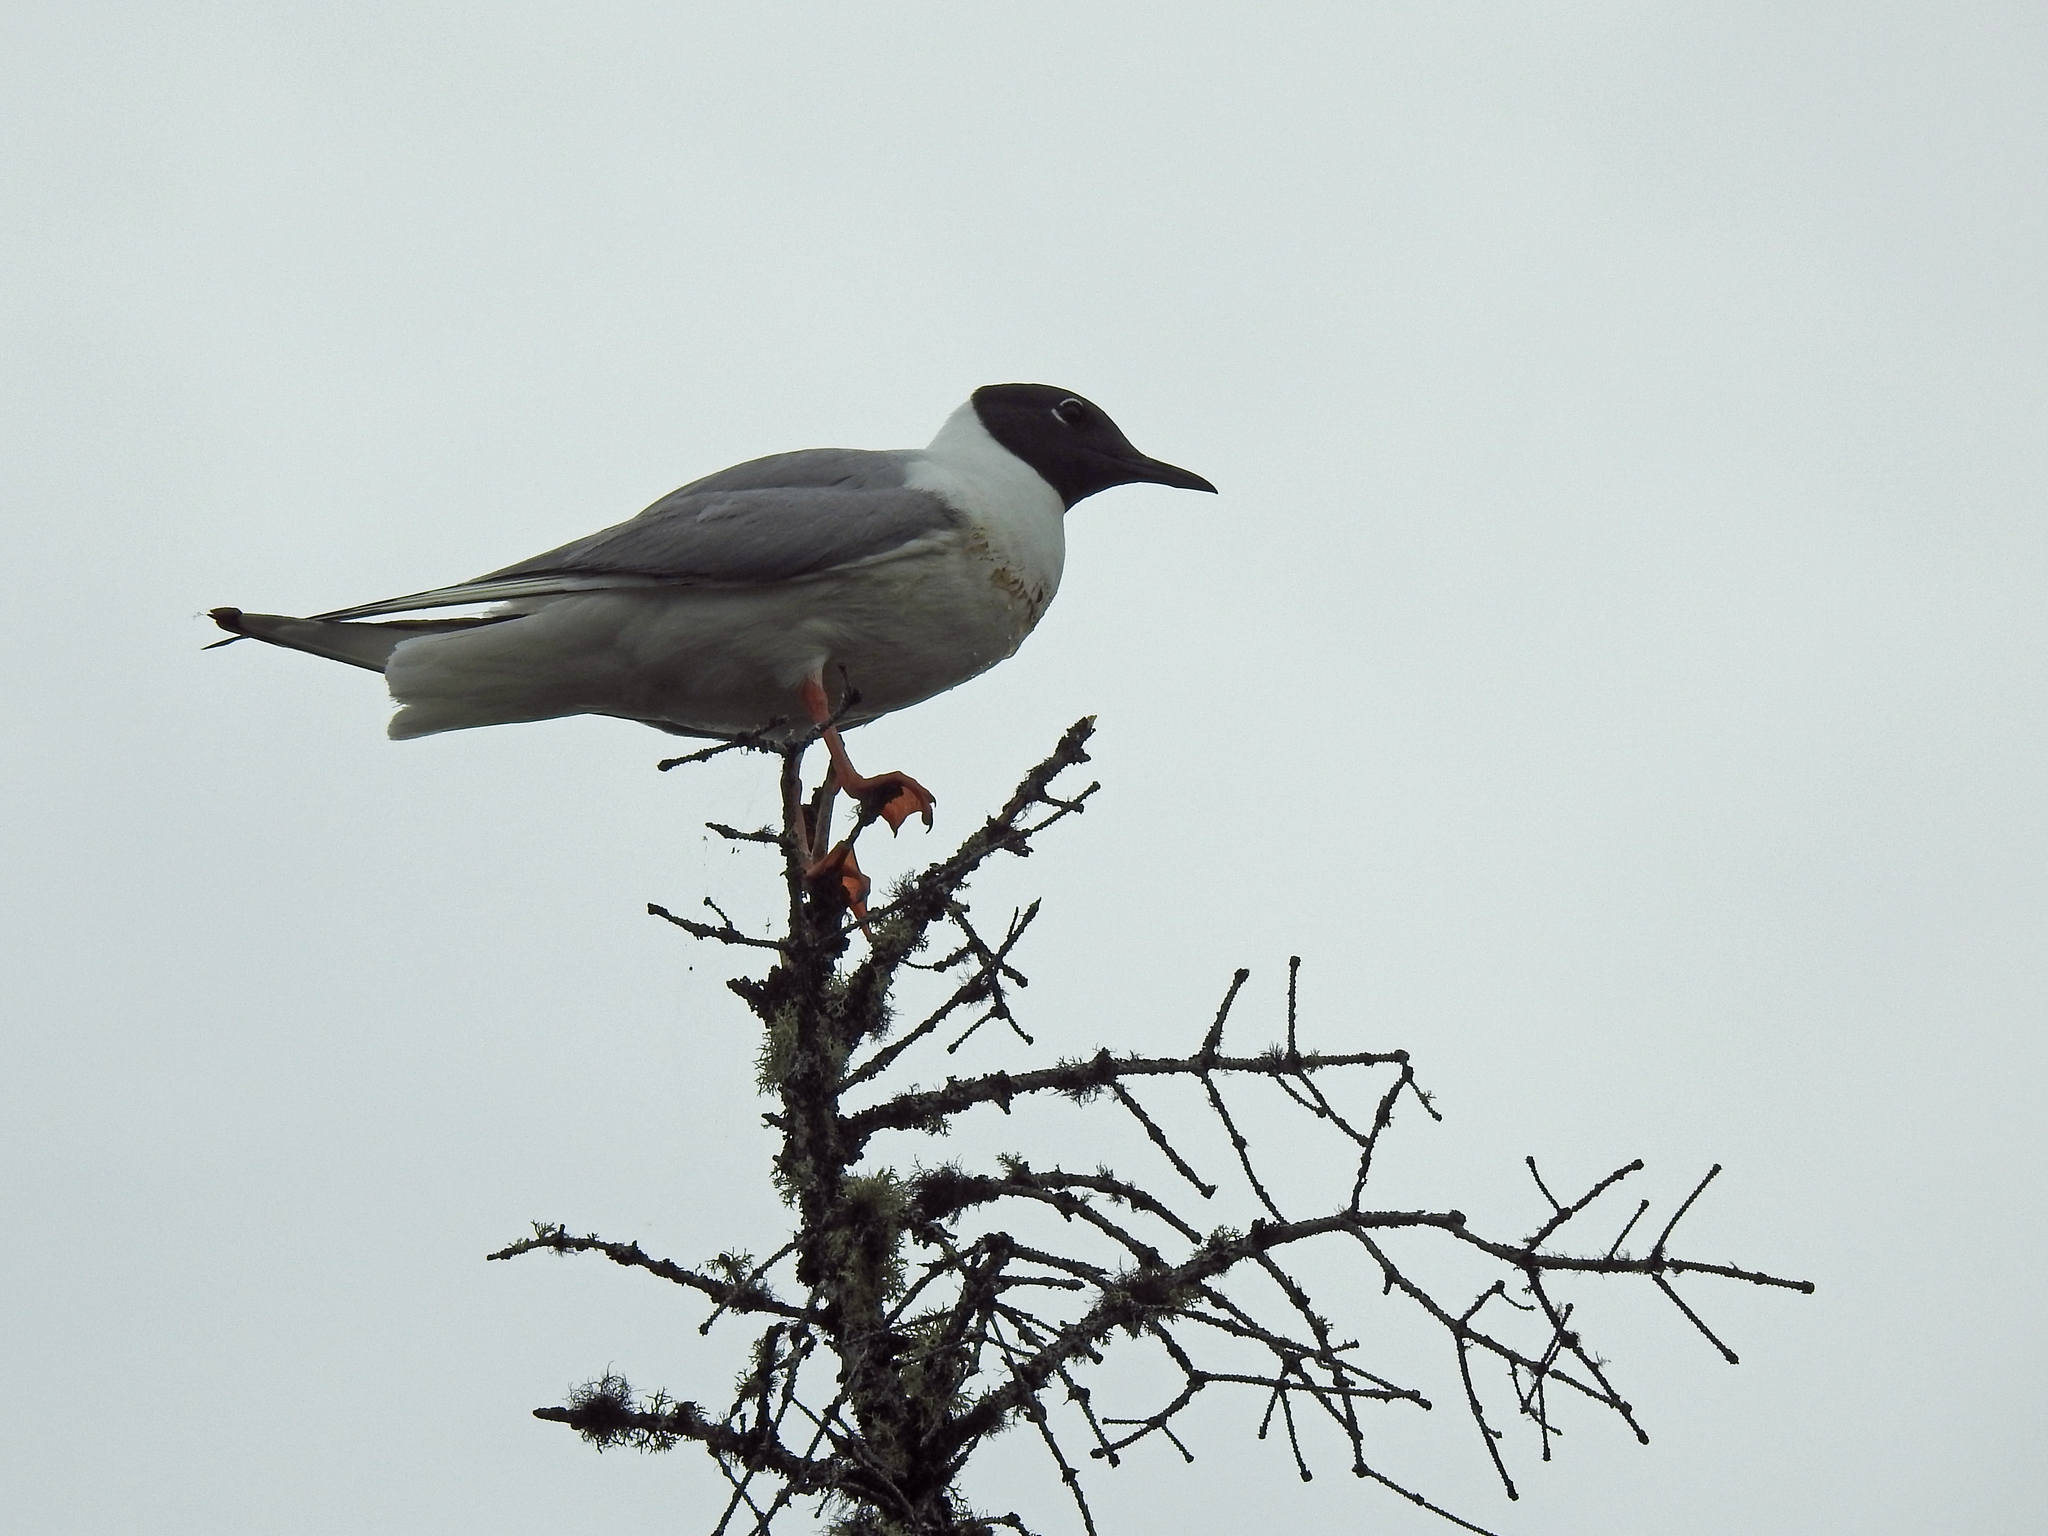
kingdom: Animalia
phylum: Chordata
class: Aves
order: Charadriiformes
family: Laridae
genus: Chroicocephalus
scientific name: Chroicocephalus philadelphia
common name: Bonaparte's gull
